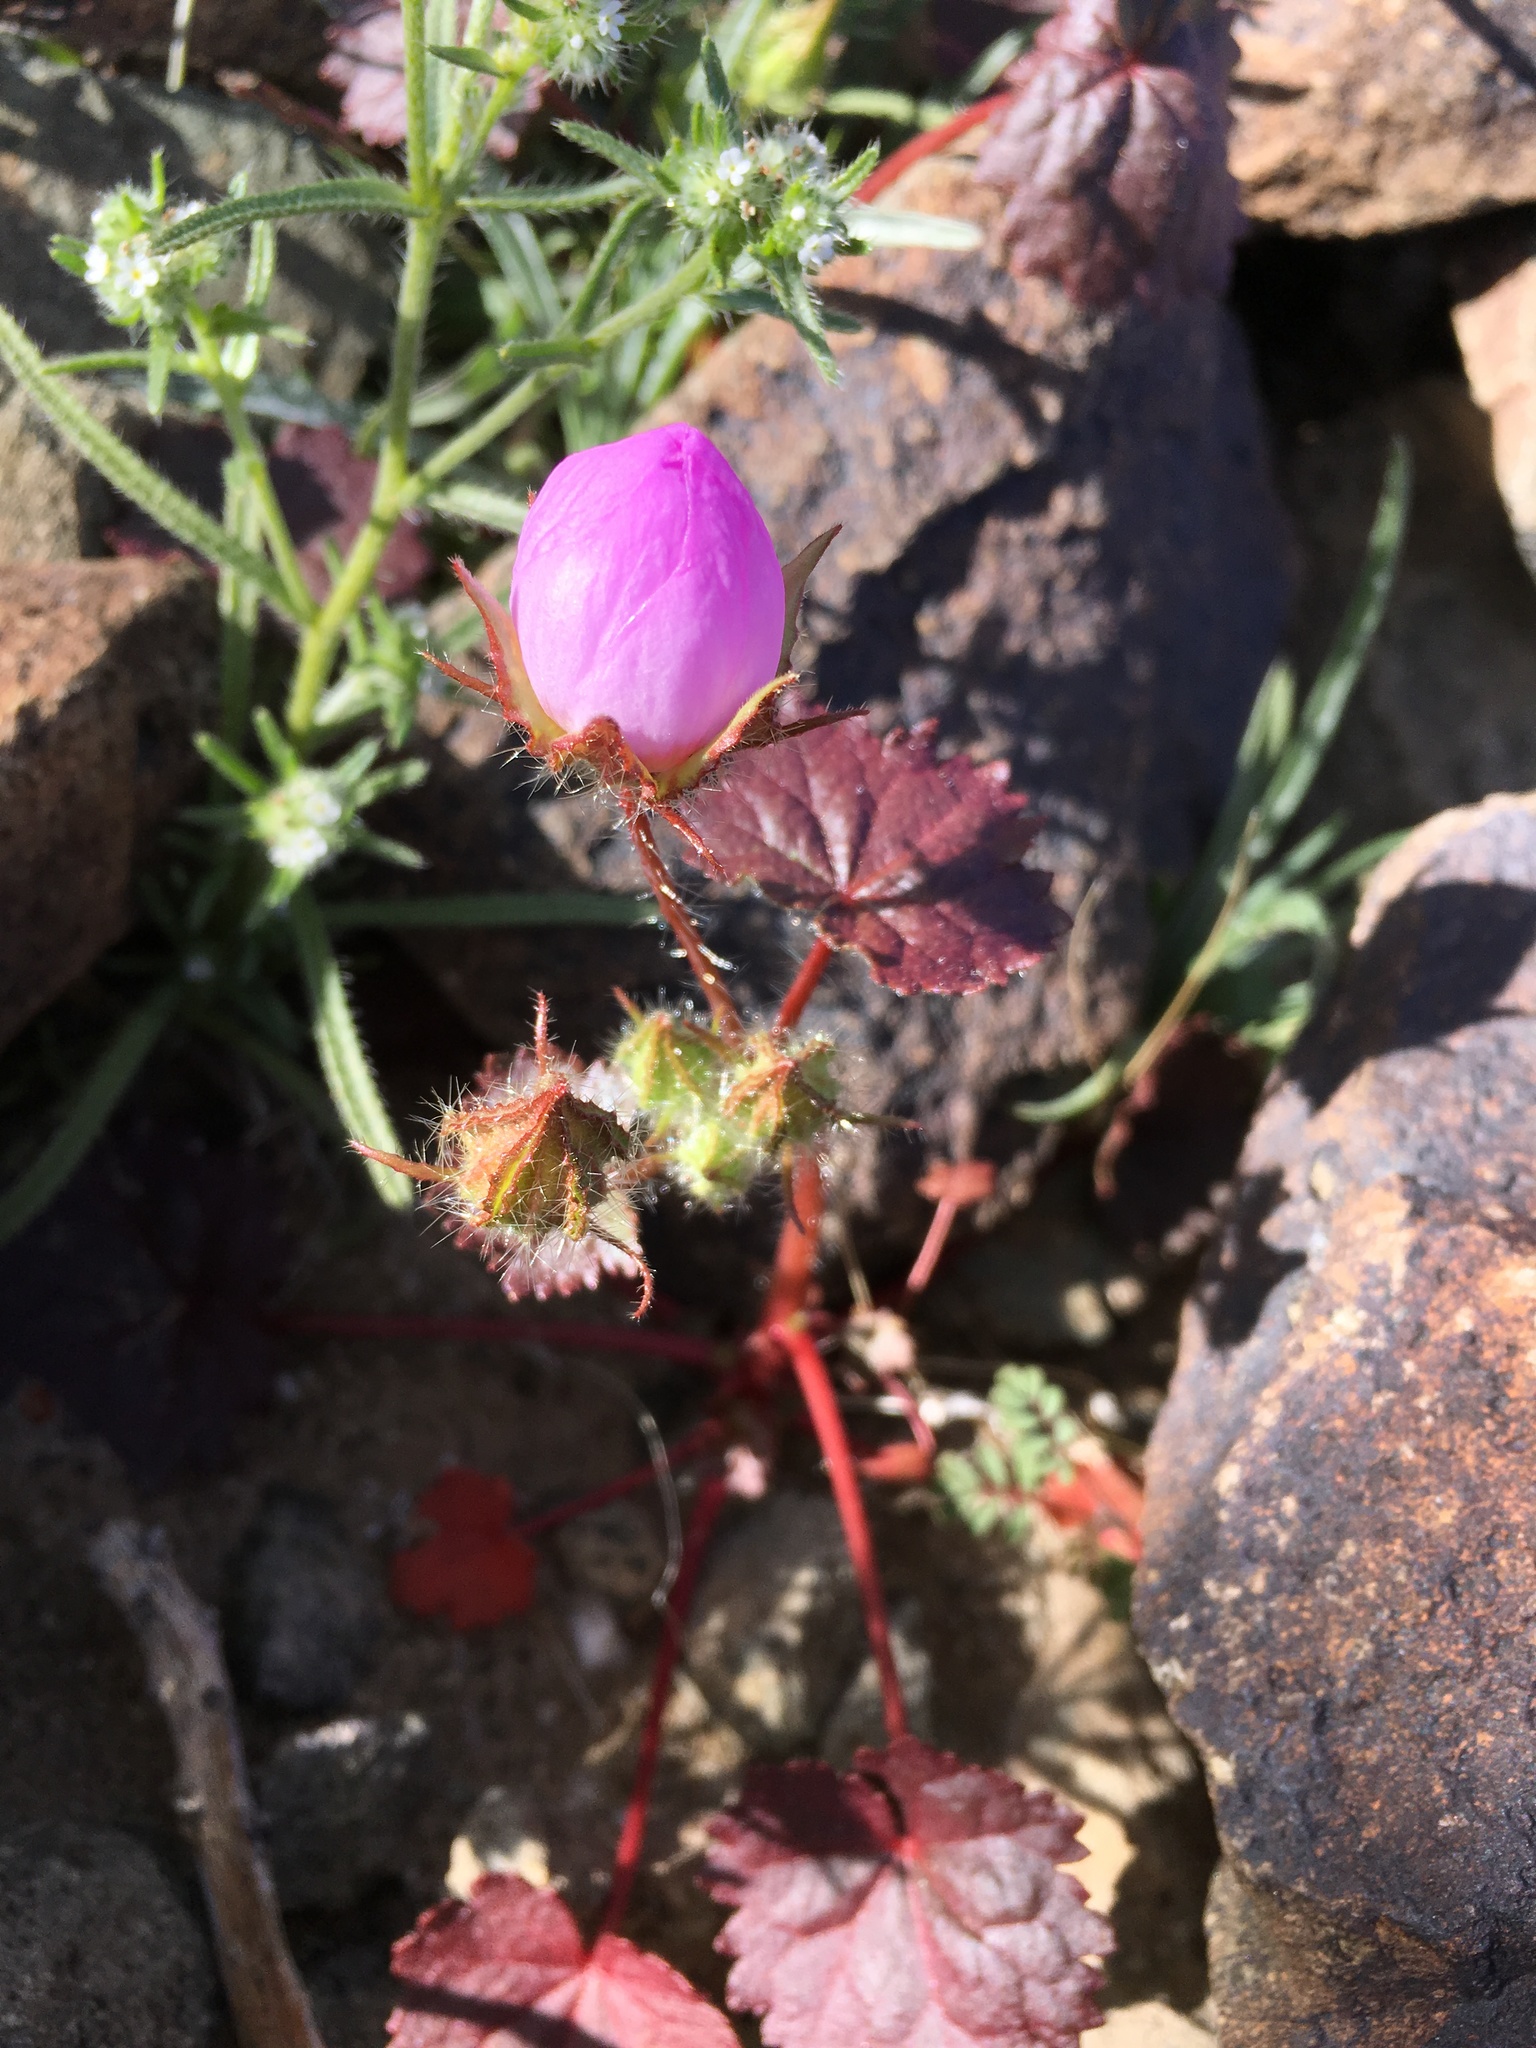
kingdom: Plantae
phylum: Tracheophyta
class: Magnoliopsida
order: Malvales
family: Malvaceae
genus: Eremalche
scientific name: Eremalche rotundifolia
